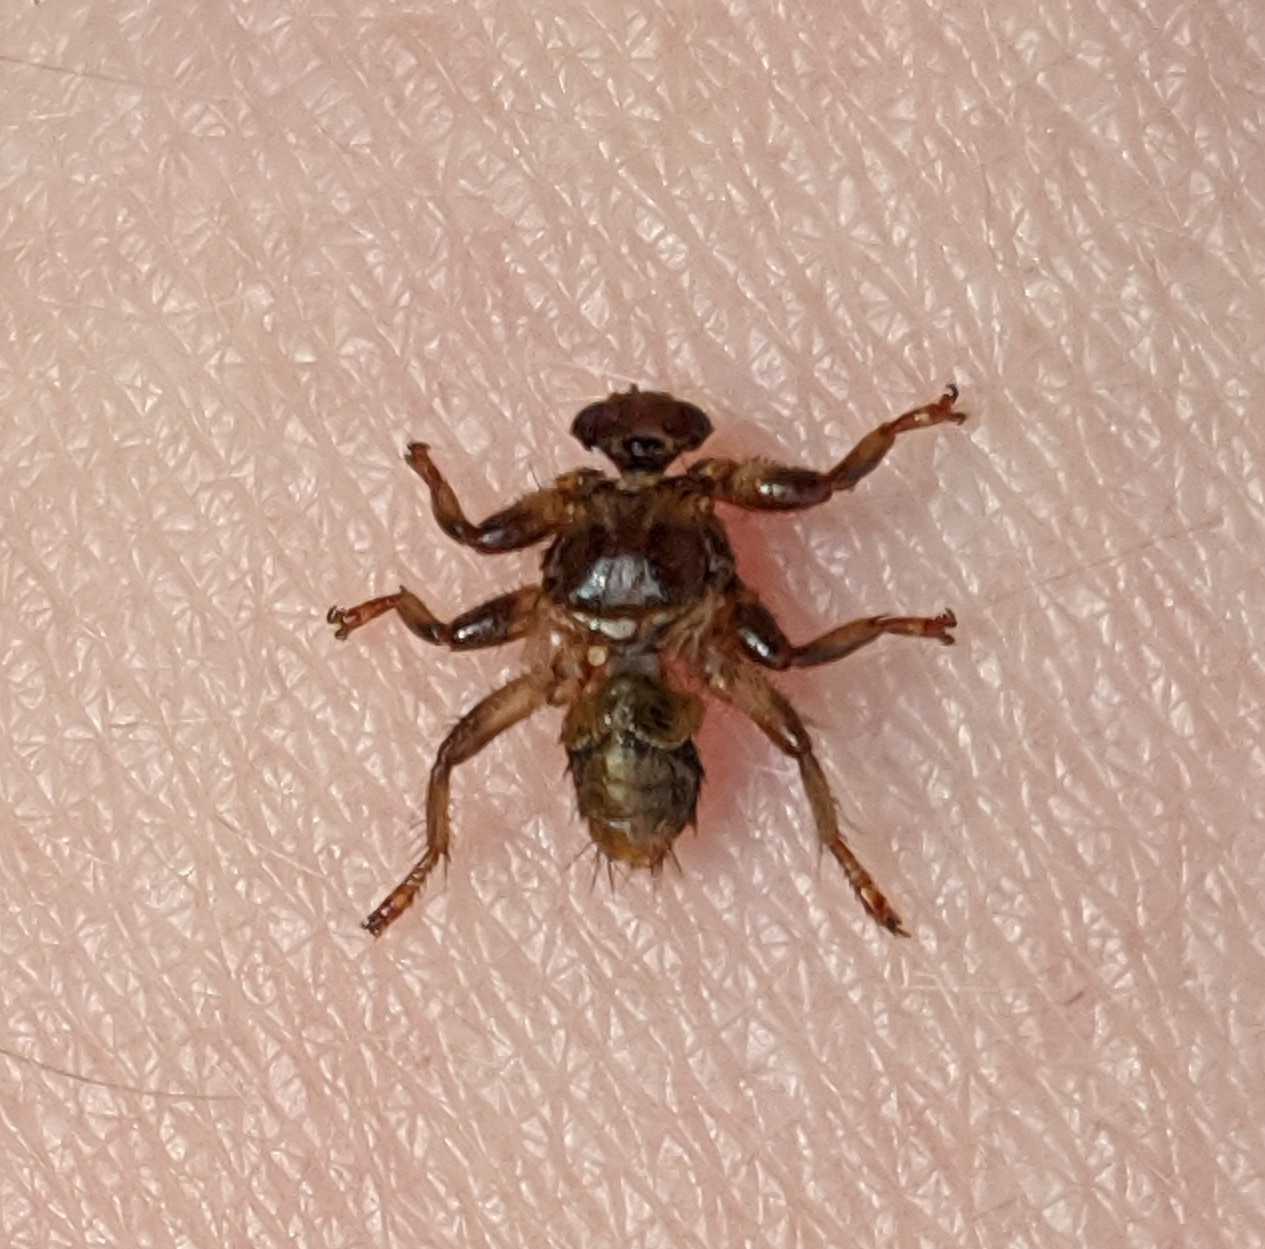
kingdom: Animalia
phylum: Arthropoda
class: Insecta
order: Diptera
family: Hippoboscidae
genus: Lipoptena
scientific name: Lipoptena cervi
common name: Deer ked
